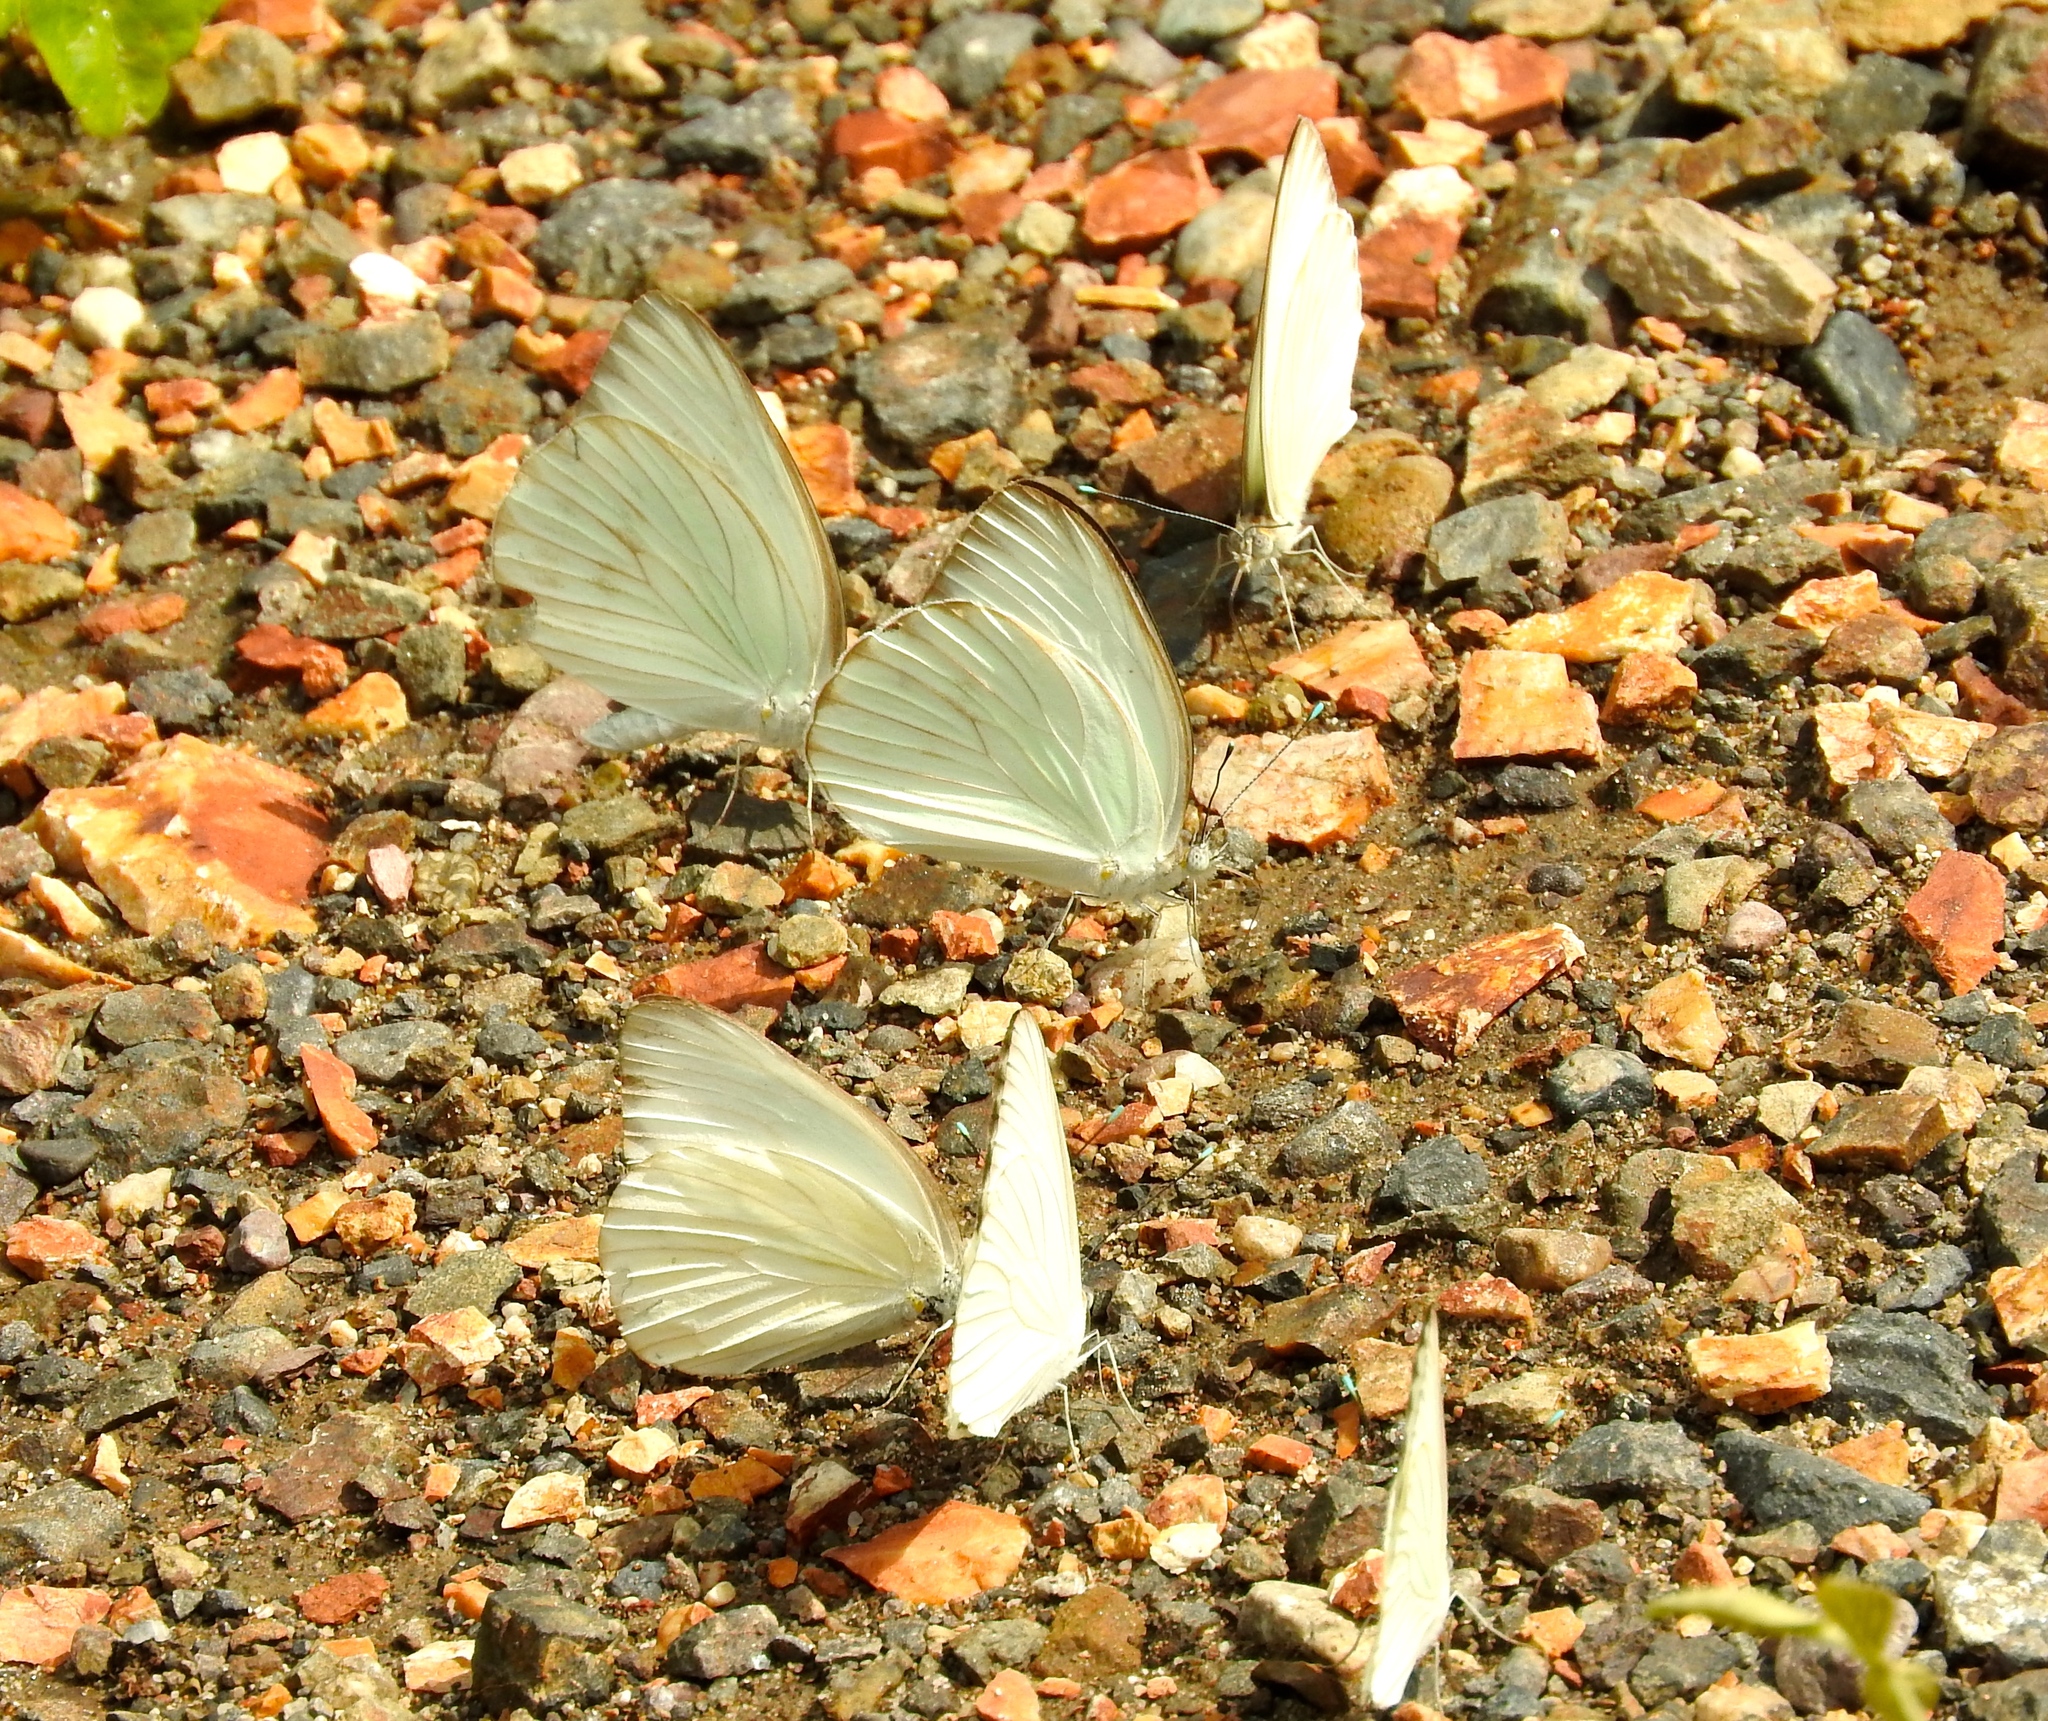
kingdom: Animalia
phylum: Arthropoda
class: Insecta
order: Lepidoptera
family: Pieridae
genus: Ascia
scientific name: Ascia monuste
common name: Great southern white
